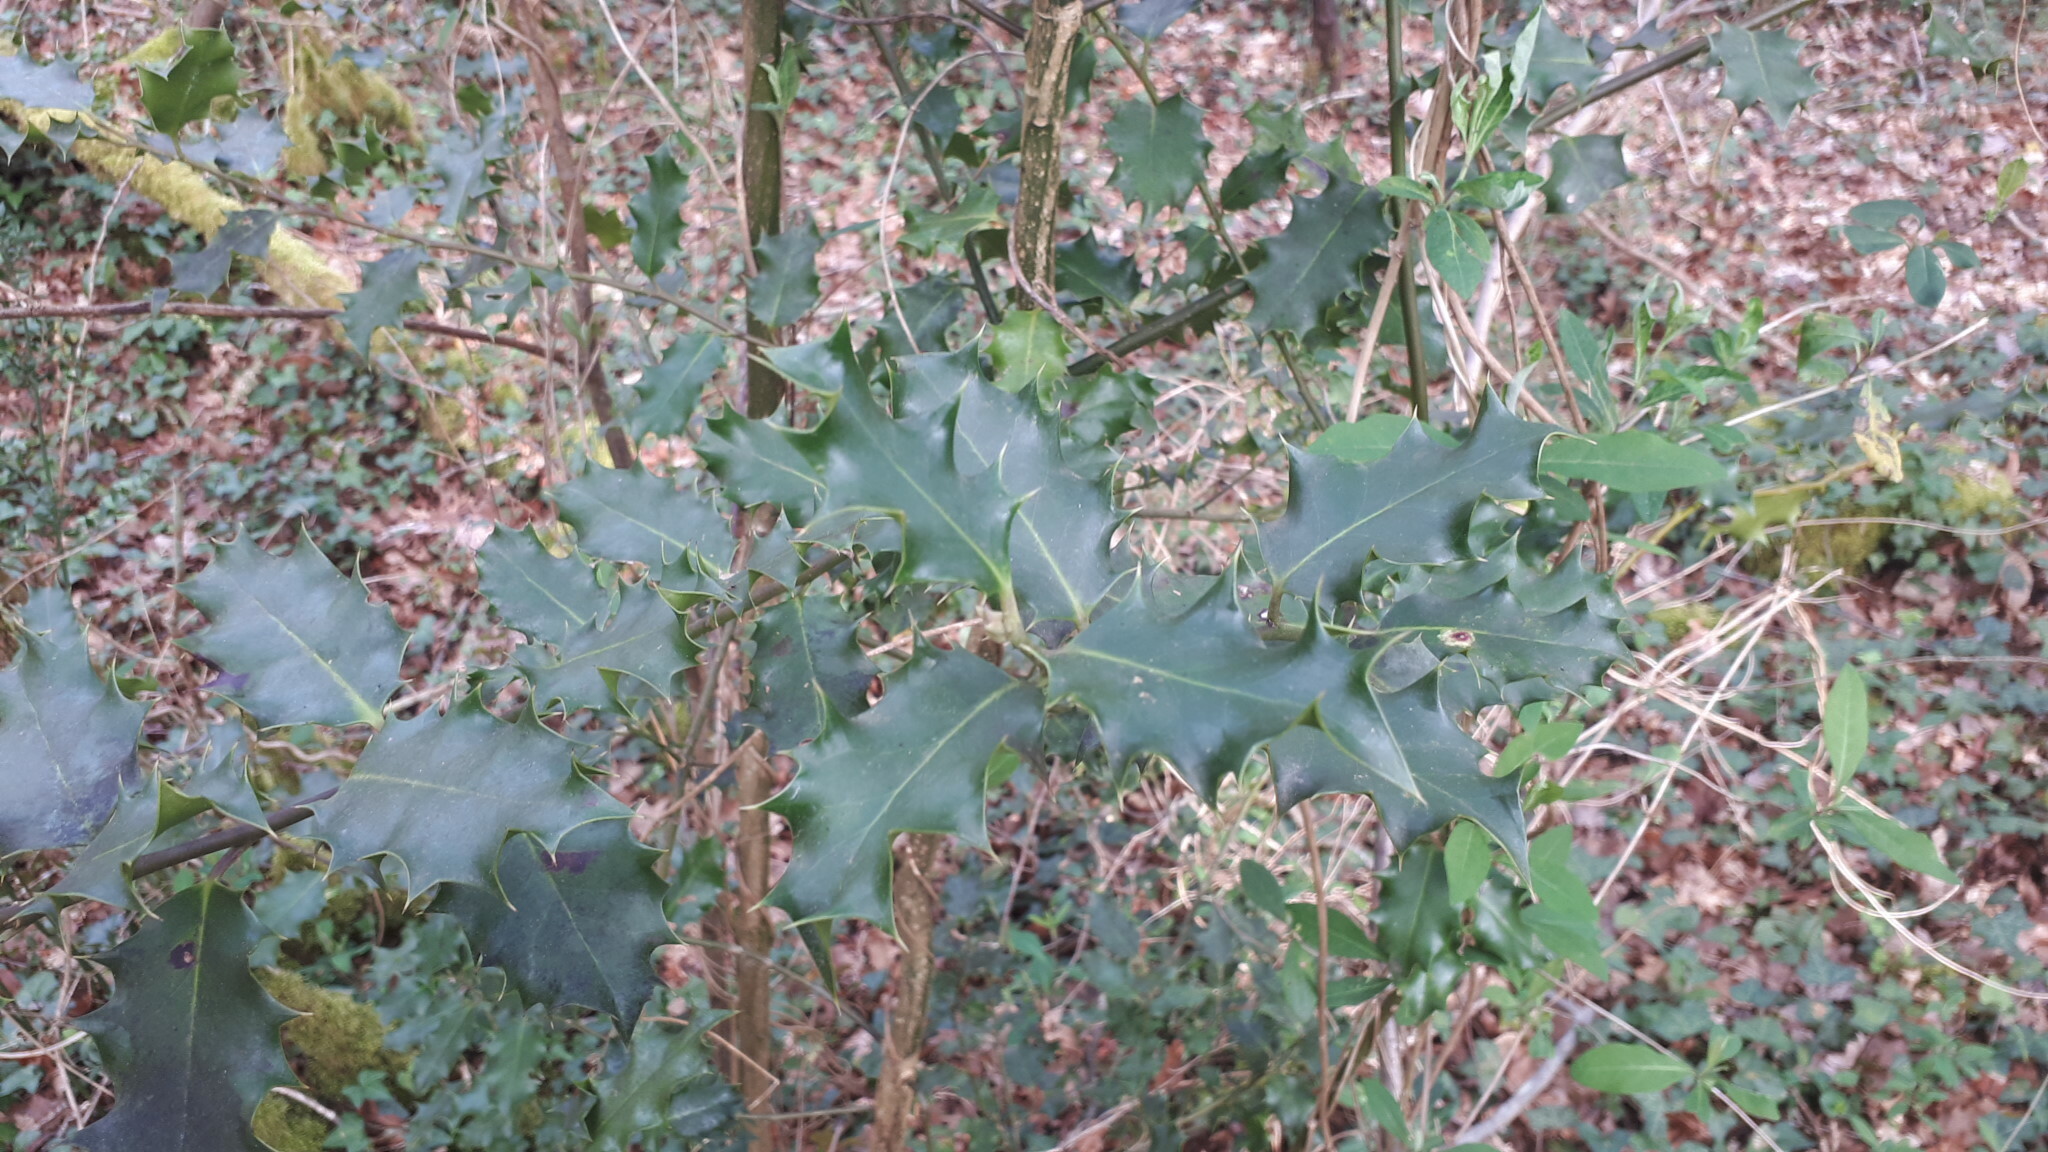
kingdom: Plantae
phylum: Tracheophyta
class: Magnoliopsida
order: Aquifoliales
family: Aquifoliaceae
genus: Ilex
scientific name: Ilex aquifolium
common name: English holly
